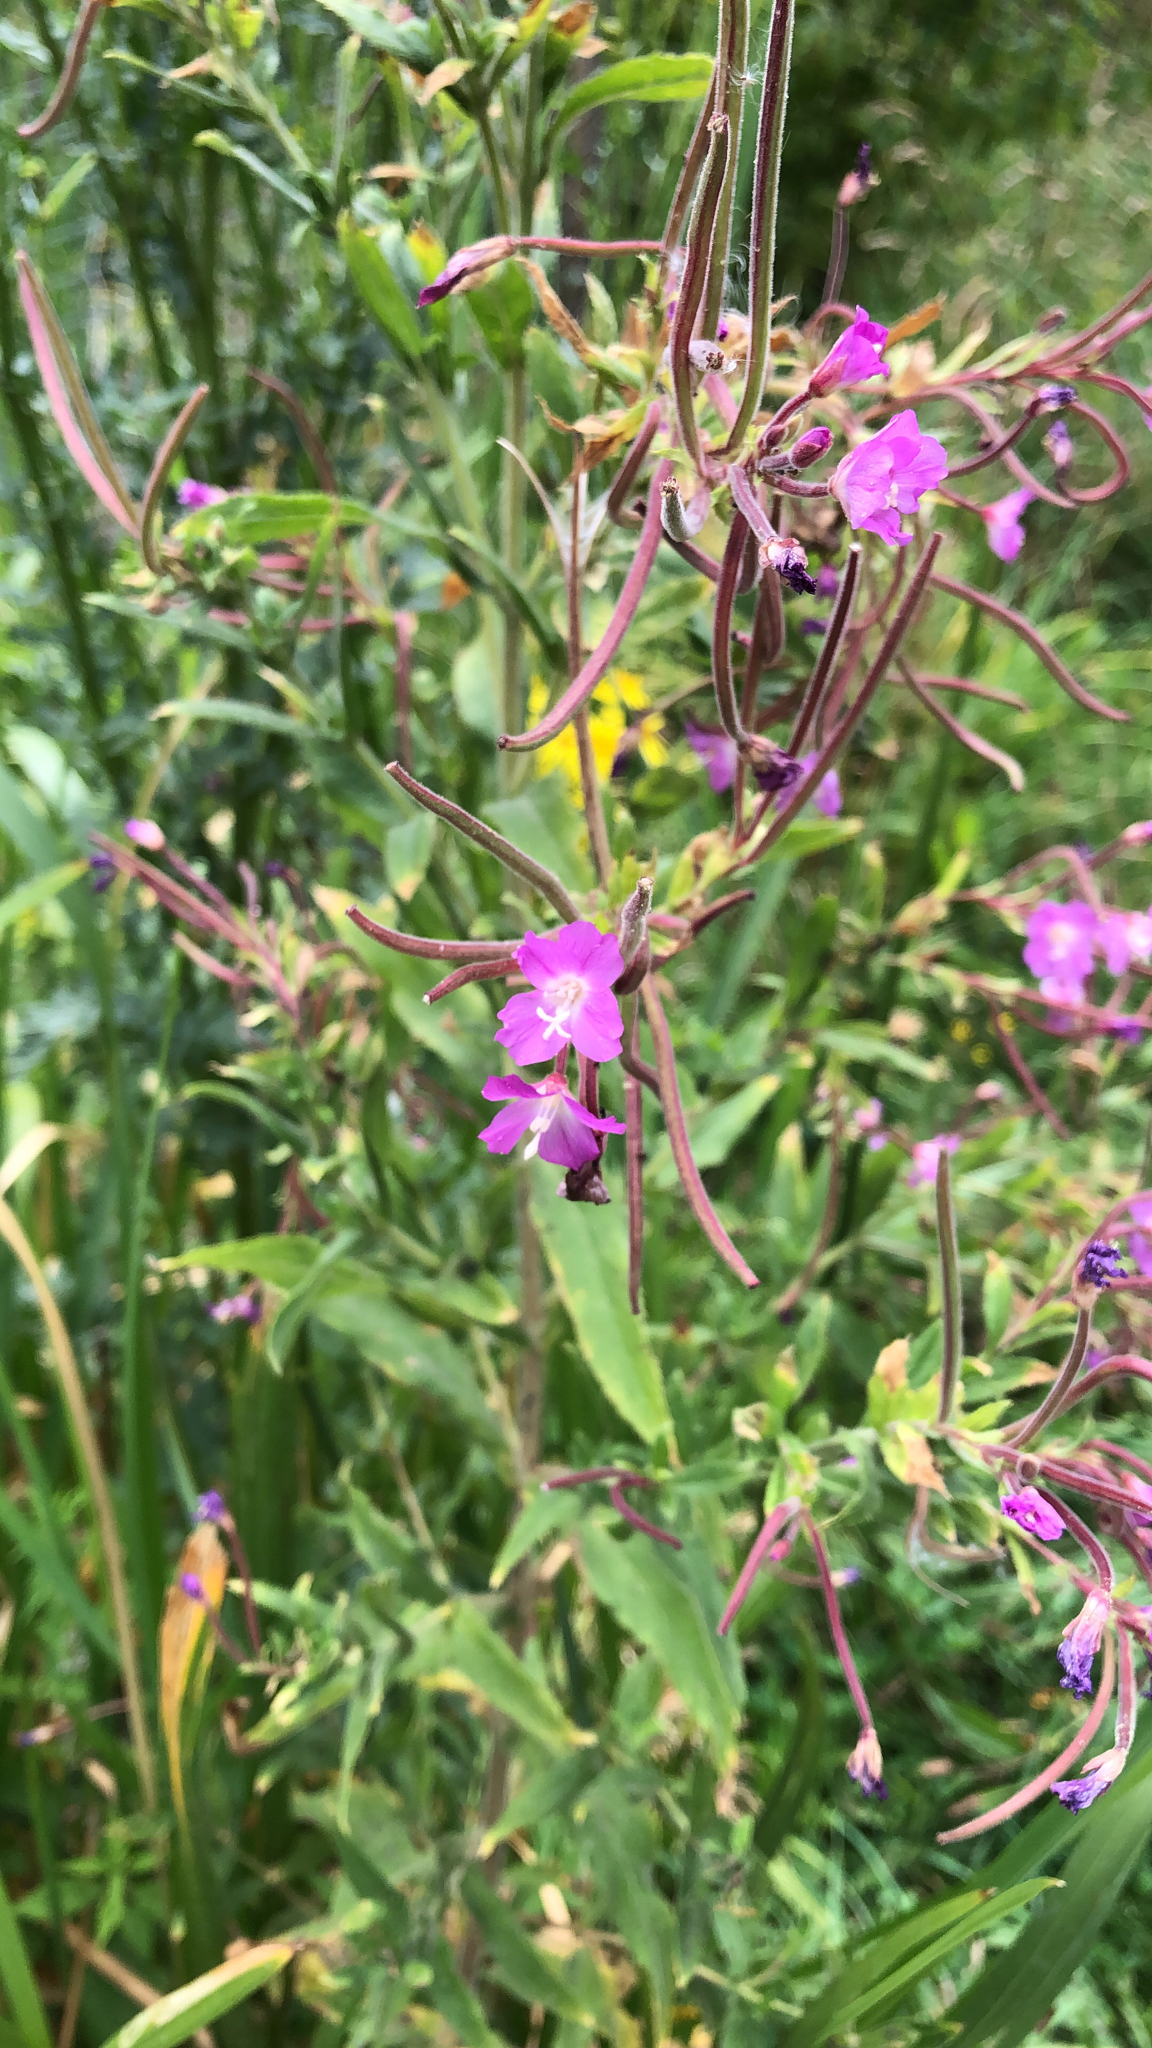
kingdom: Plantae
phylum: Tracheophyta
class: Magnoliopsida
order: Myrtales
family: Onagraceae
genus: Epilobium
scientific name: Epilobium hirsutum
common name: Great willowherb
